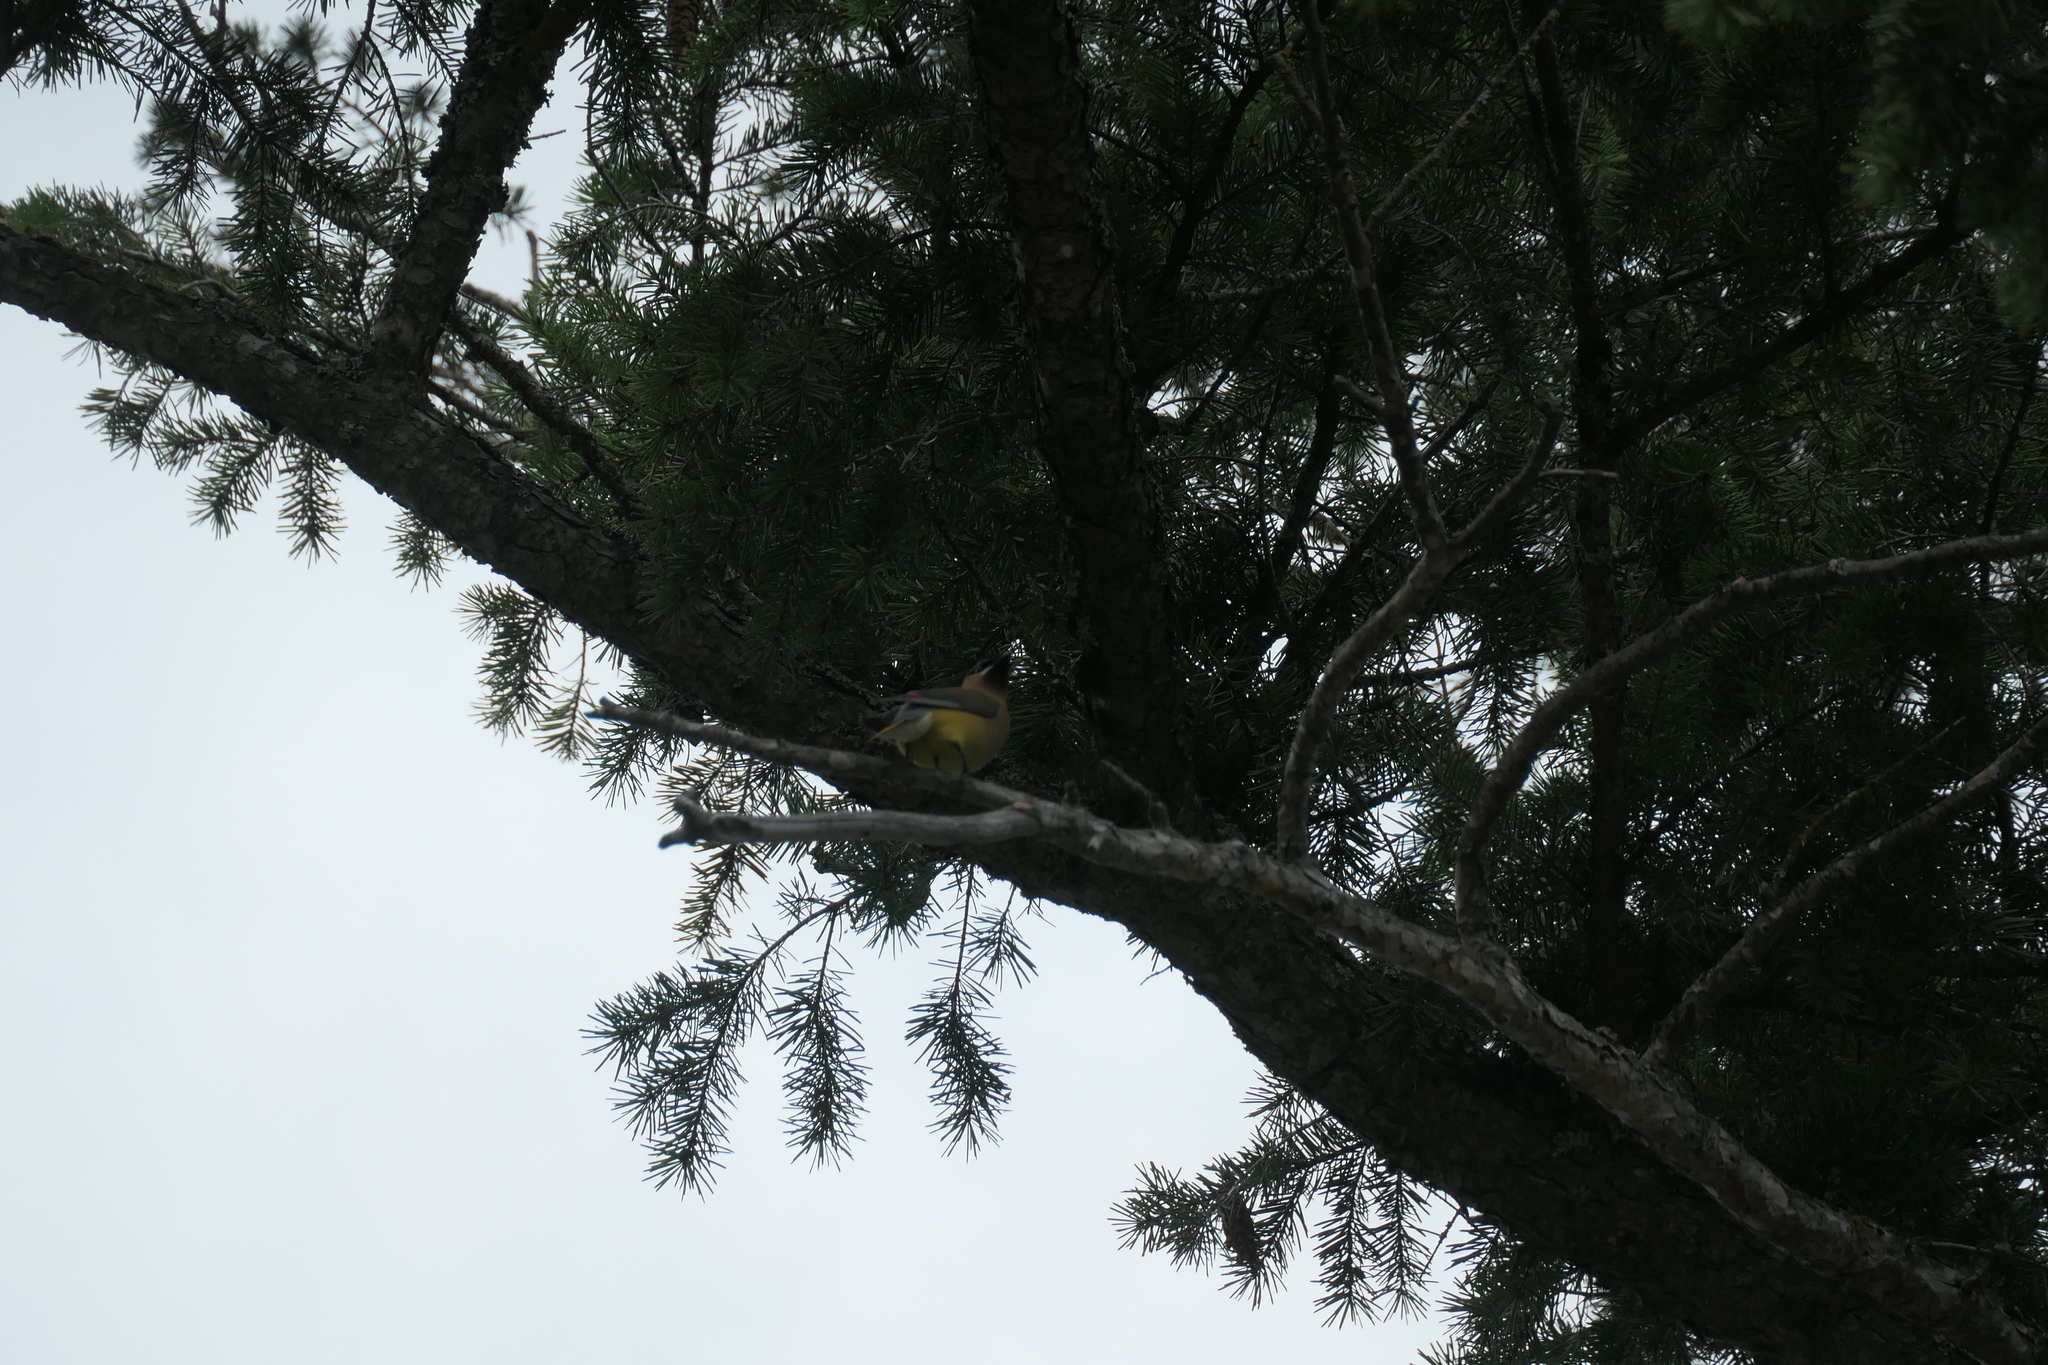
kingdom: Animalia
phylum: Chordata
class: Aves
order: Passeriformes
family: Bombycillidae
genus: Bombycilla
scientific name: Bombycilla cedrorum
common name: Cedar waxwing
